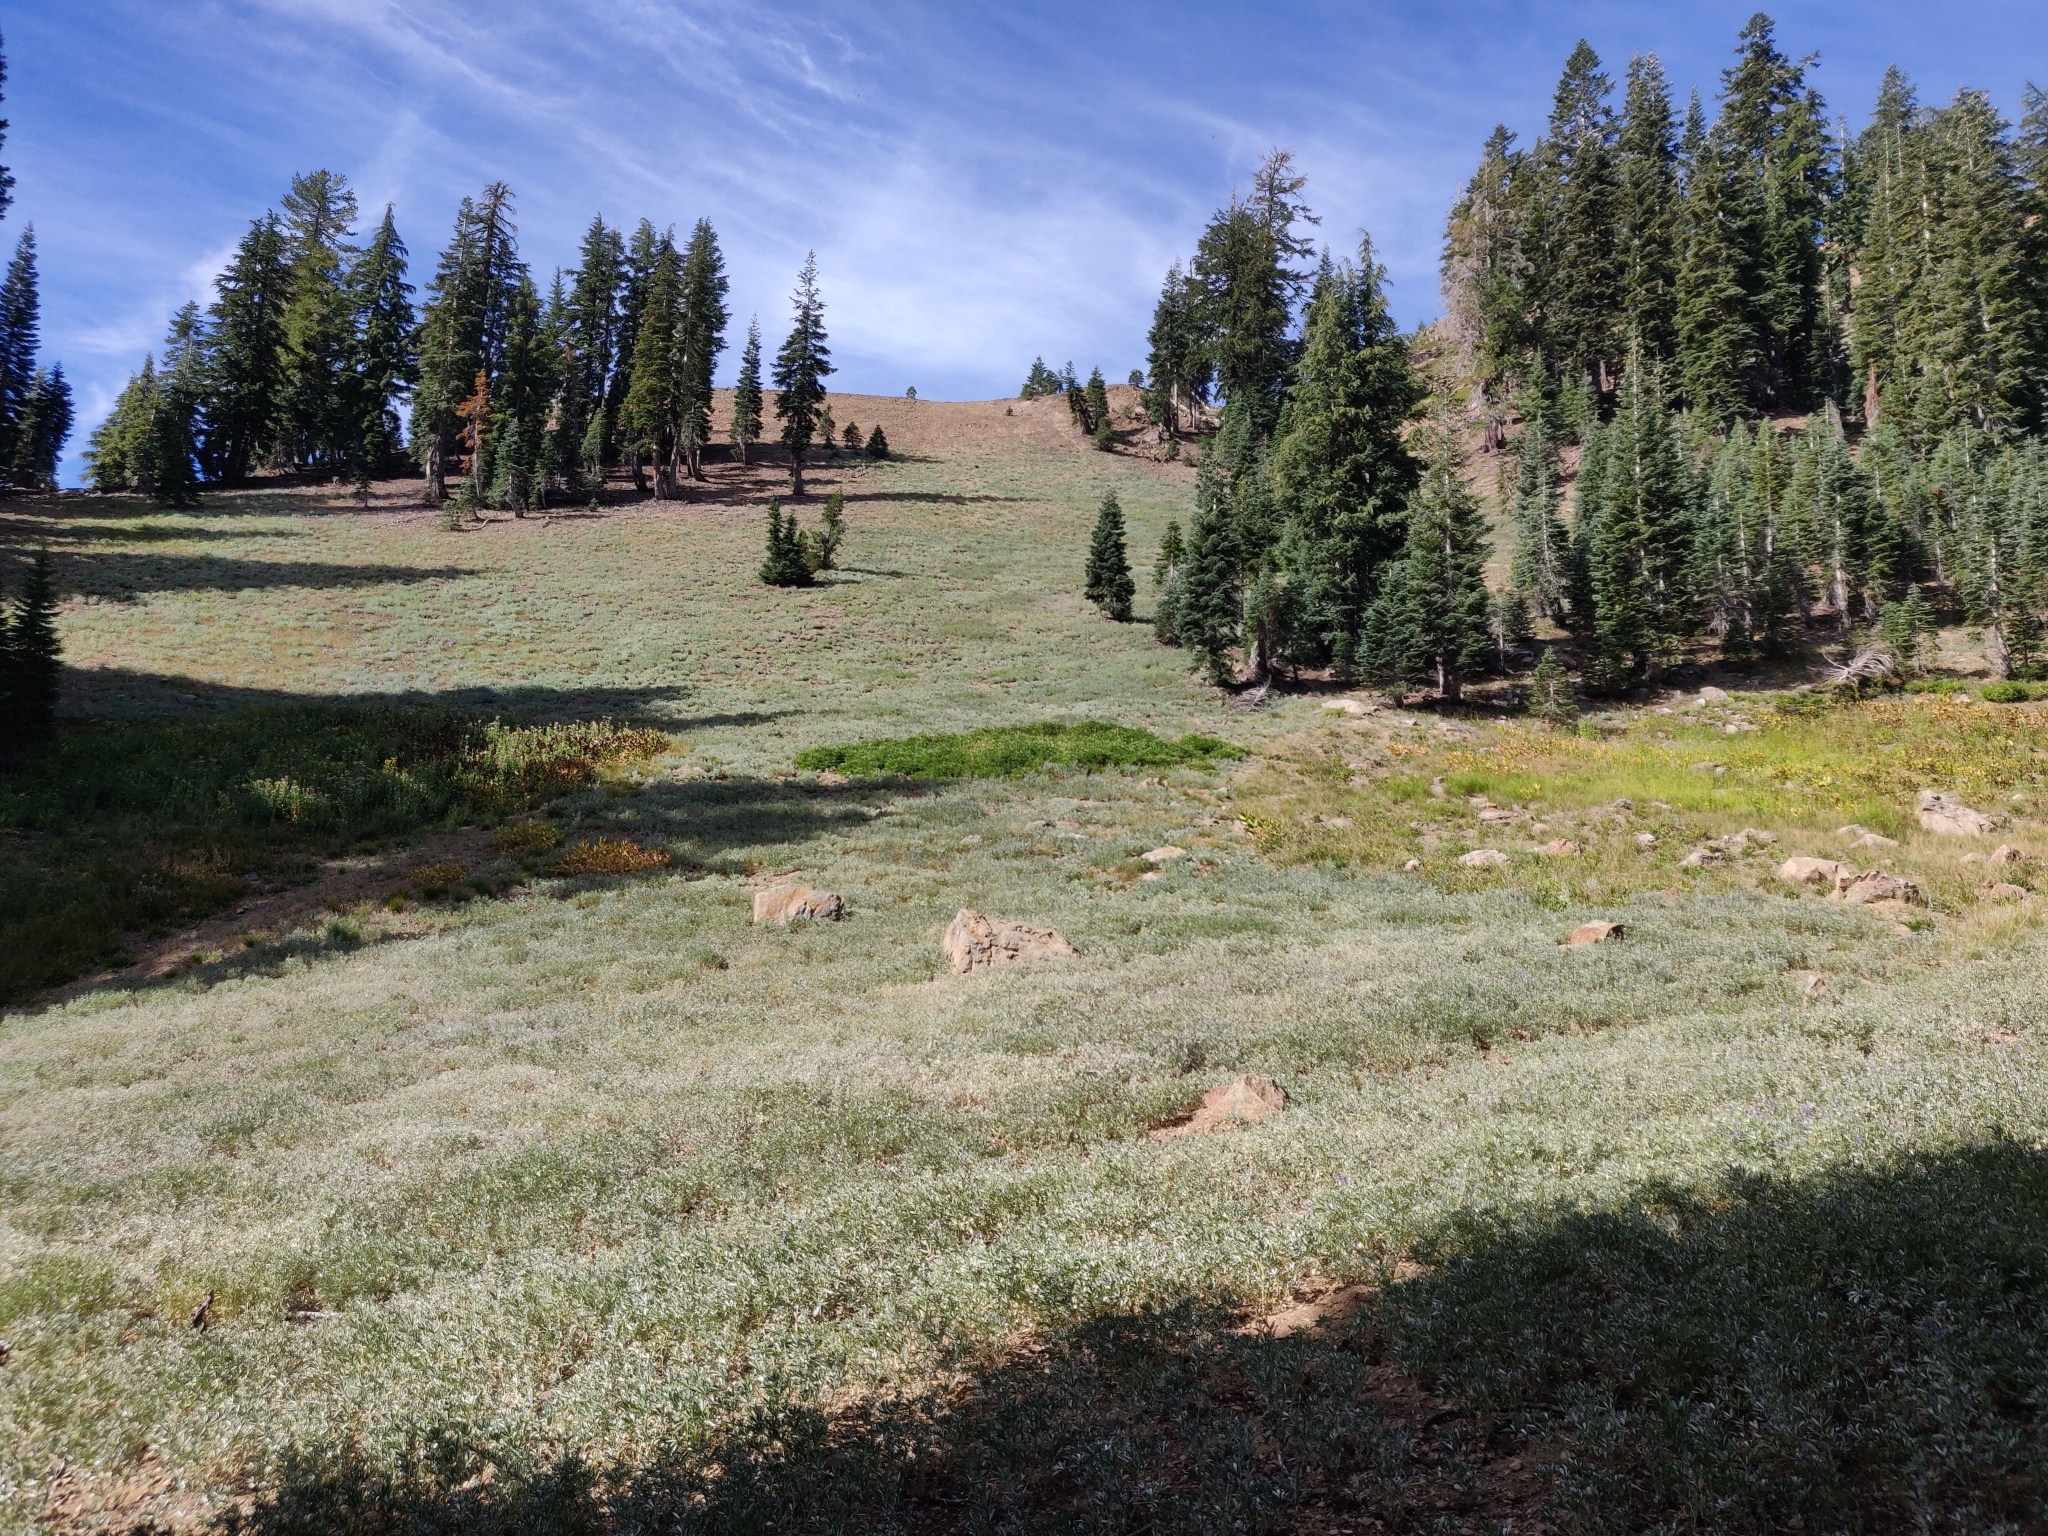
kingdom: Plantae
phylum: Tracheophyta
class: Magnoliopsida
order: Fabales
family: Fabaceae
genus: Lupinus
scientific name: Lupinus obtusilobus
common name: Blunt-lobe lupine
